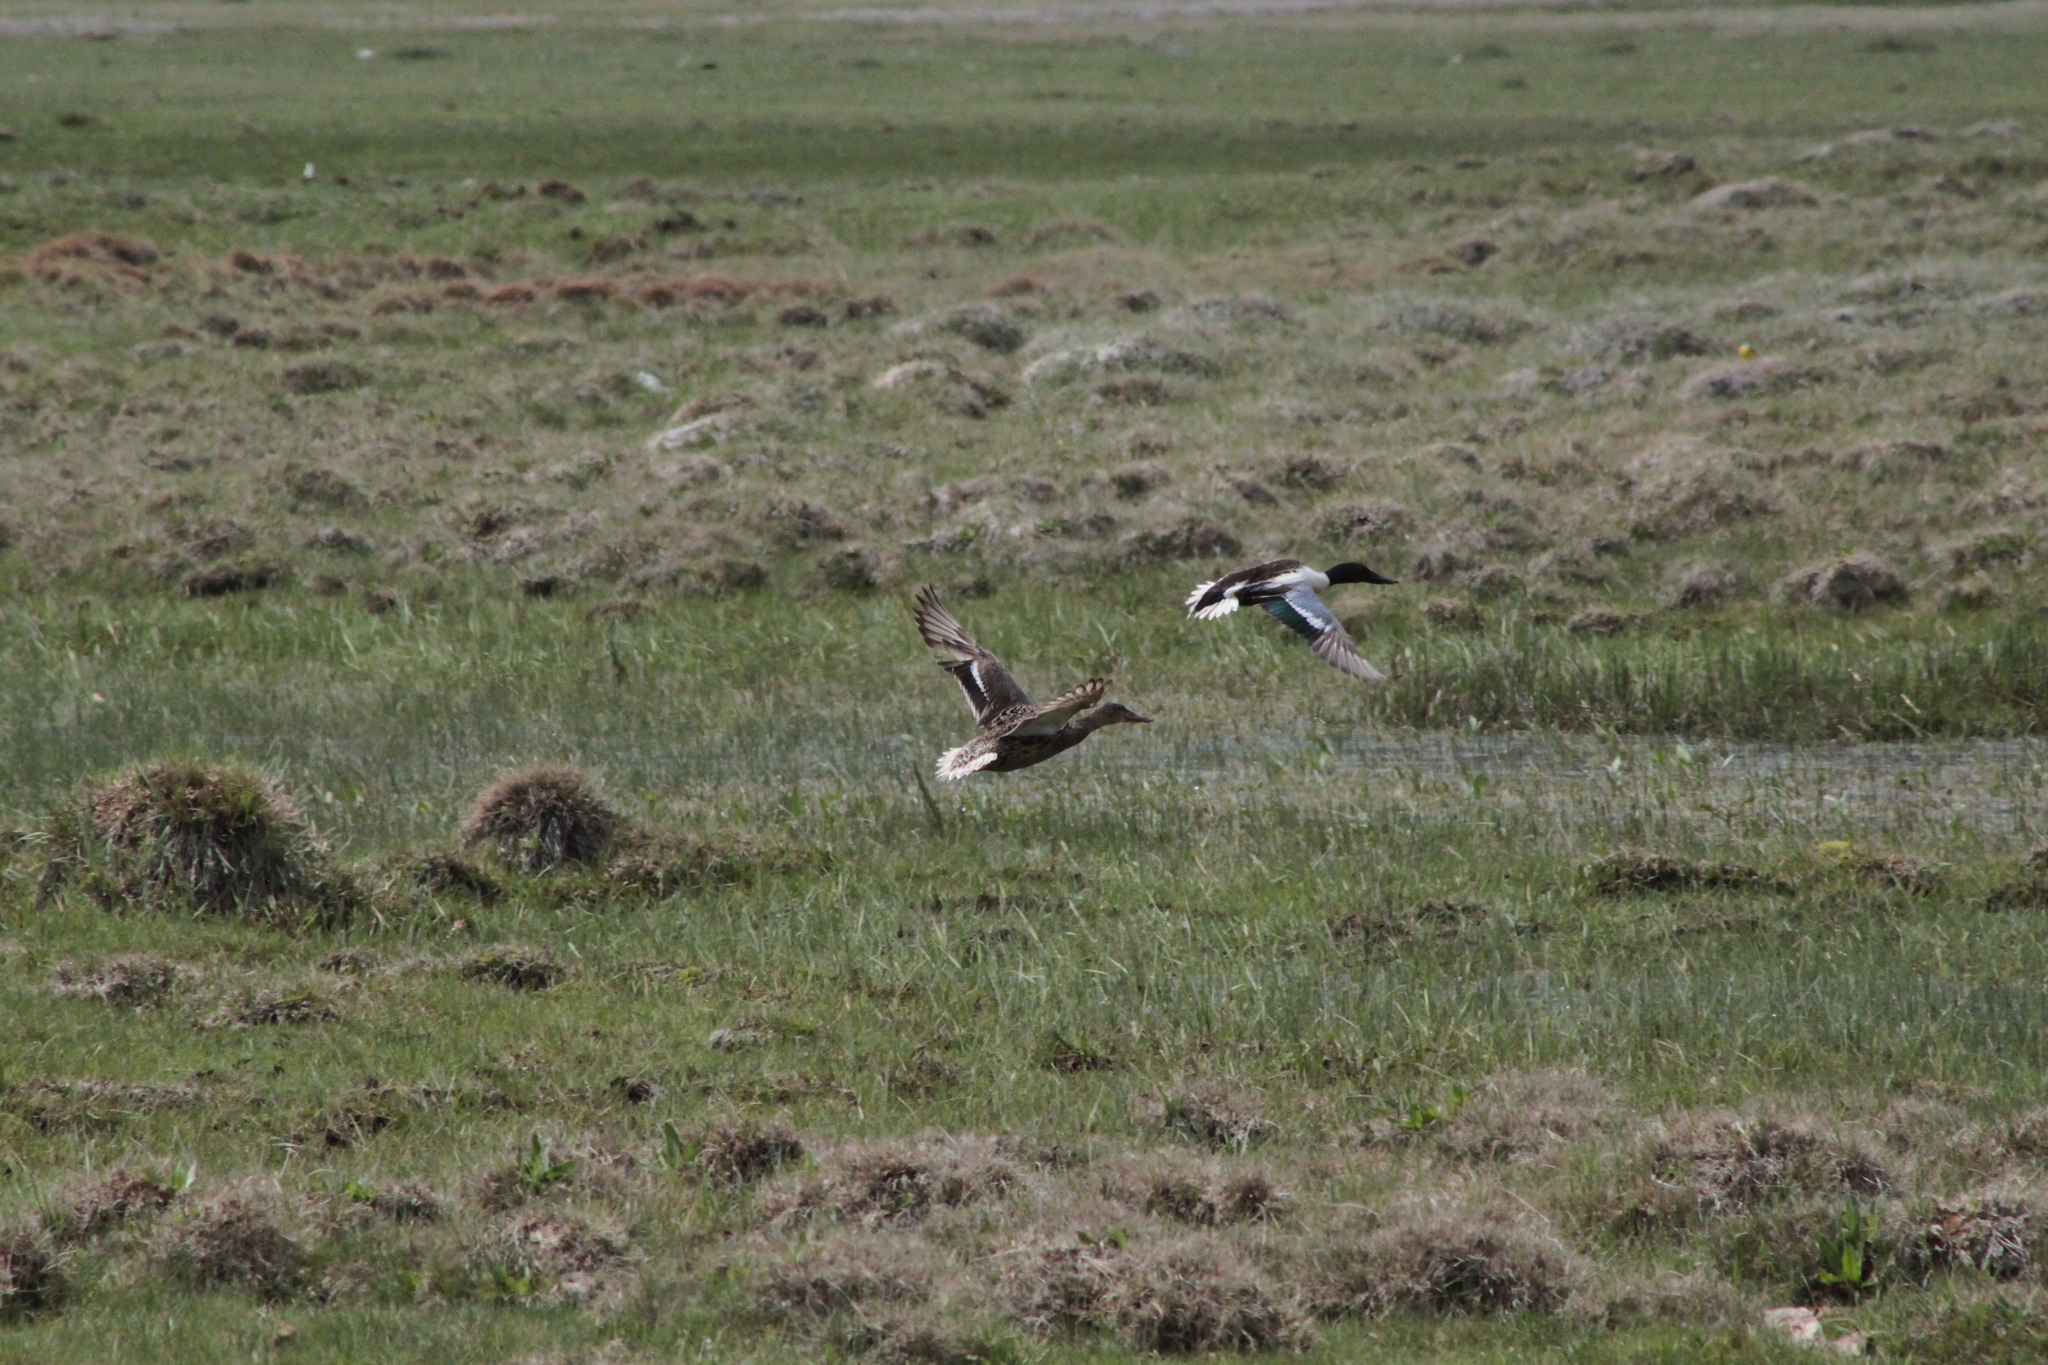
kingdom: Animalia
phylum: Chordata
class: Aves
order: Anseriformes
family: Anatidae
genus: Spatula
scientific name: Spatula clypeata
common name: Northern shoveler
